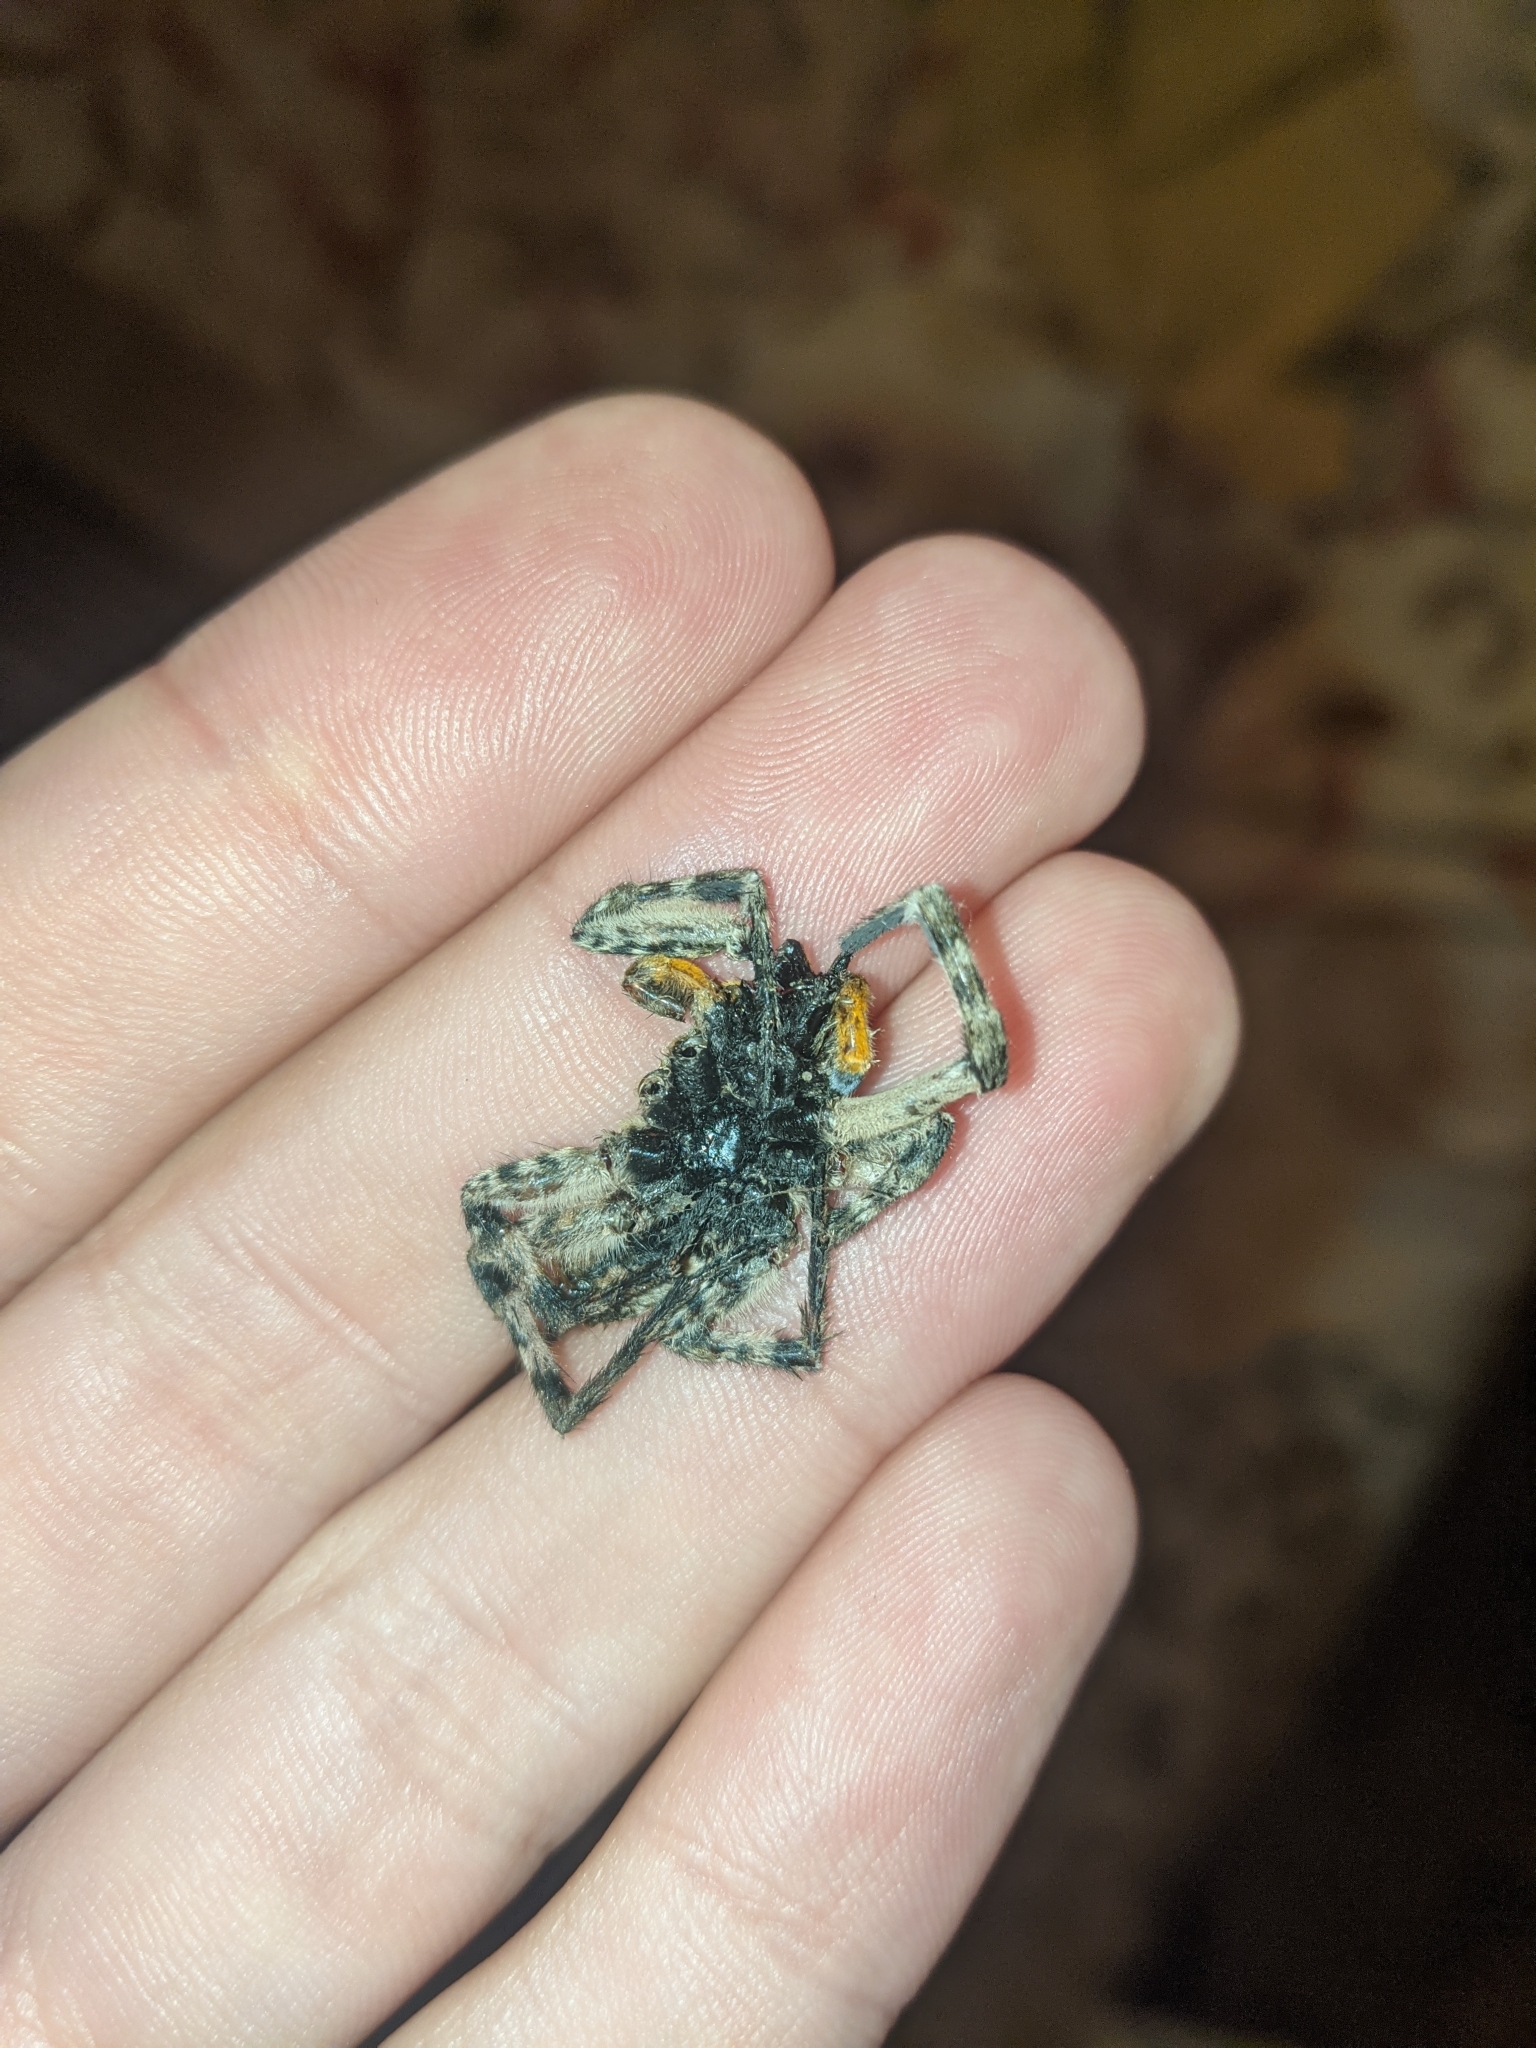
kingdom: Animalia
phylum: Arthropoda
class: Arachnida
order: Araneae
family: Lycosidae
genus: Lycosa
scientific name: Lycosa singoriensis
